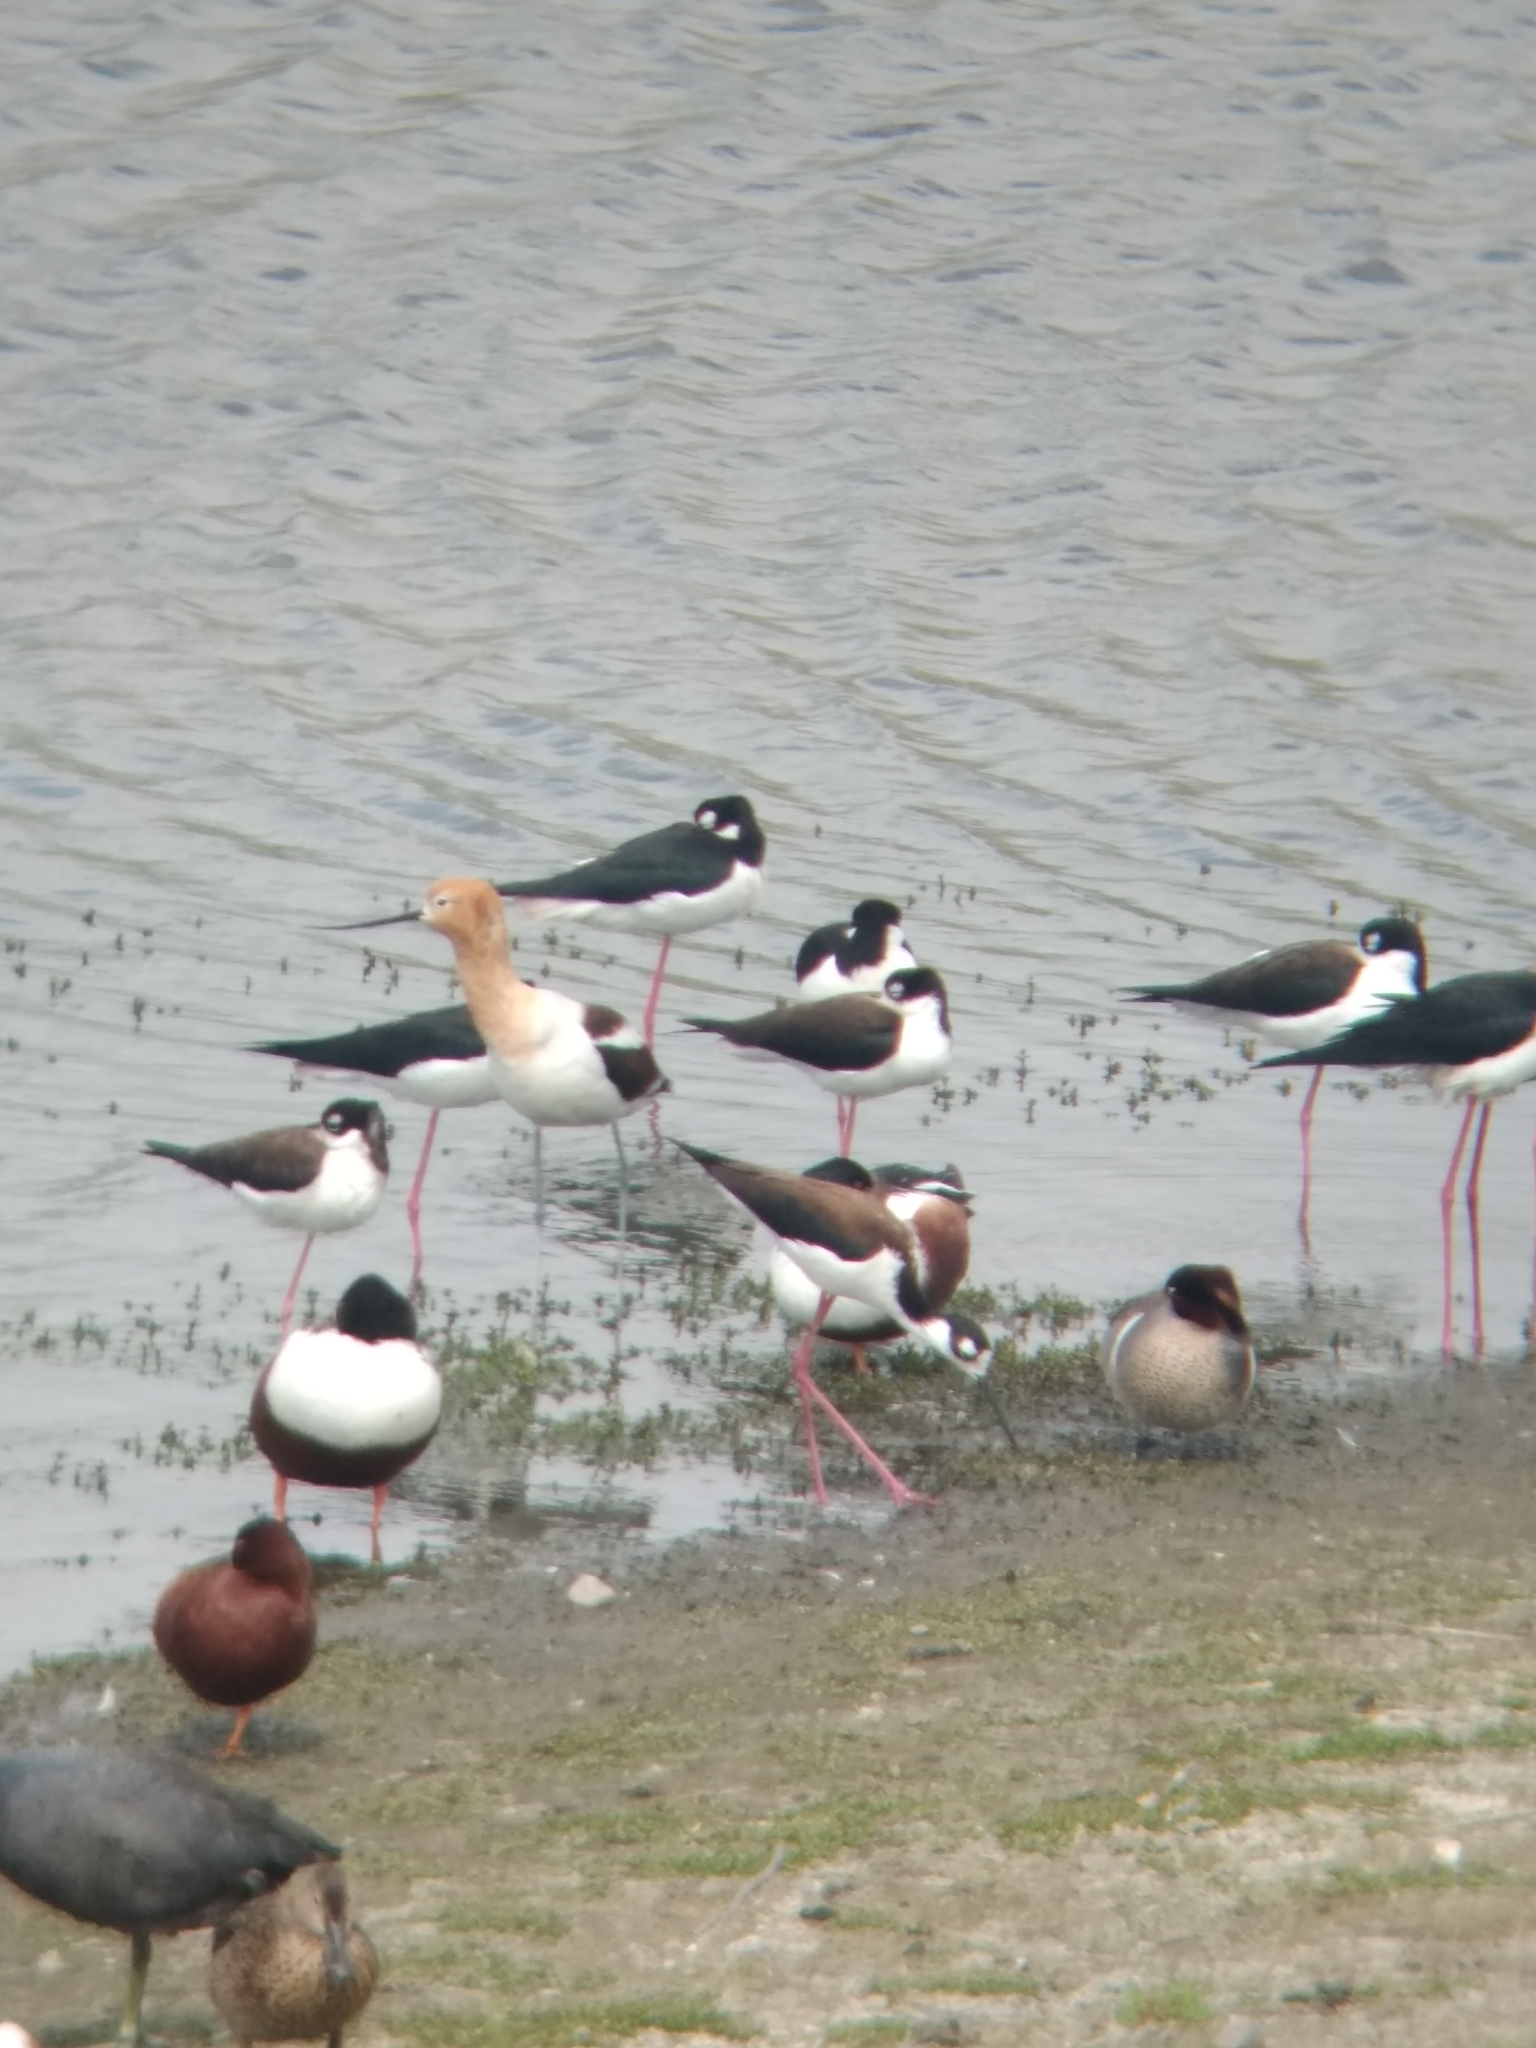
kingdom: Animalia
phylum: Chordata
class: Aves
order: Charadriiformes
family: Recurvirostridae
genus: Recurvirostra
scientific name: Recurvirostra americana
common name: American avocet
